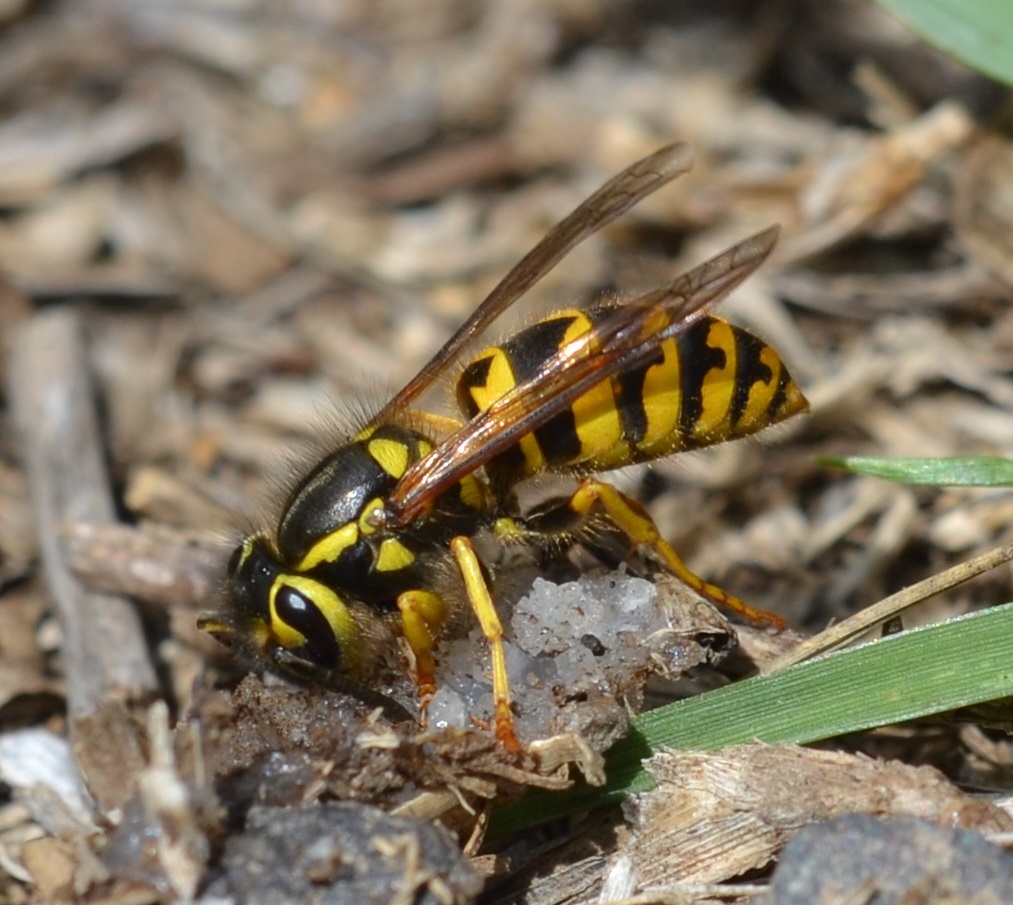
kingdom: Animalia
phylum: Arthropoda
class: Insecta
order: Hymenoptera
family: Vespidae
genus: Vespula
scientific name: Vespula pensylvanica
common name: Western yellowjacket
